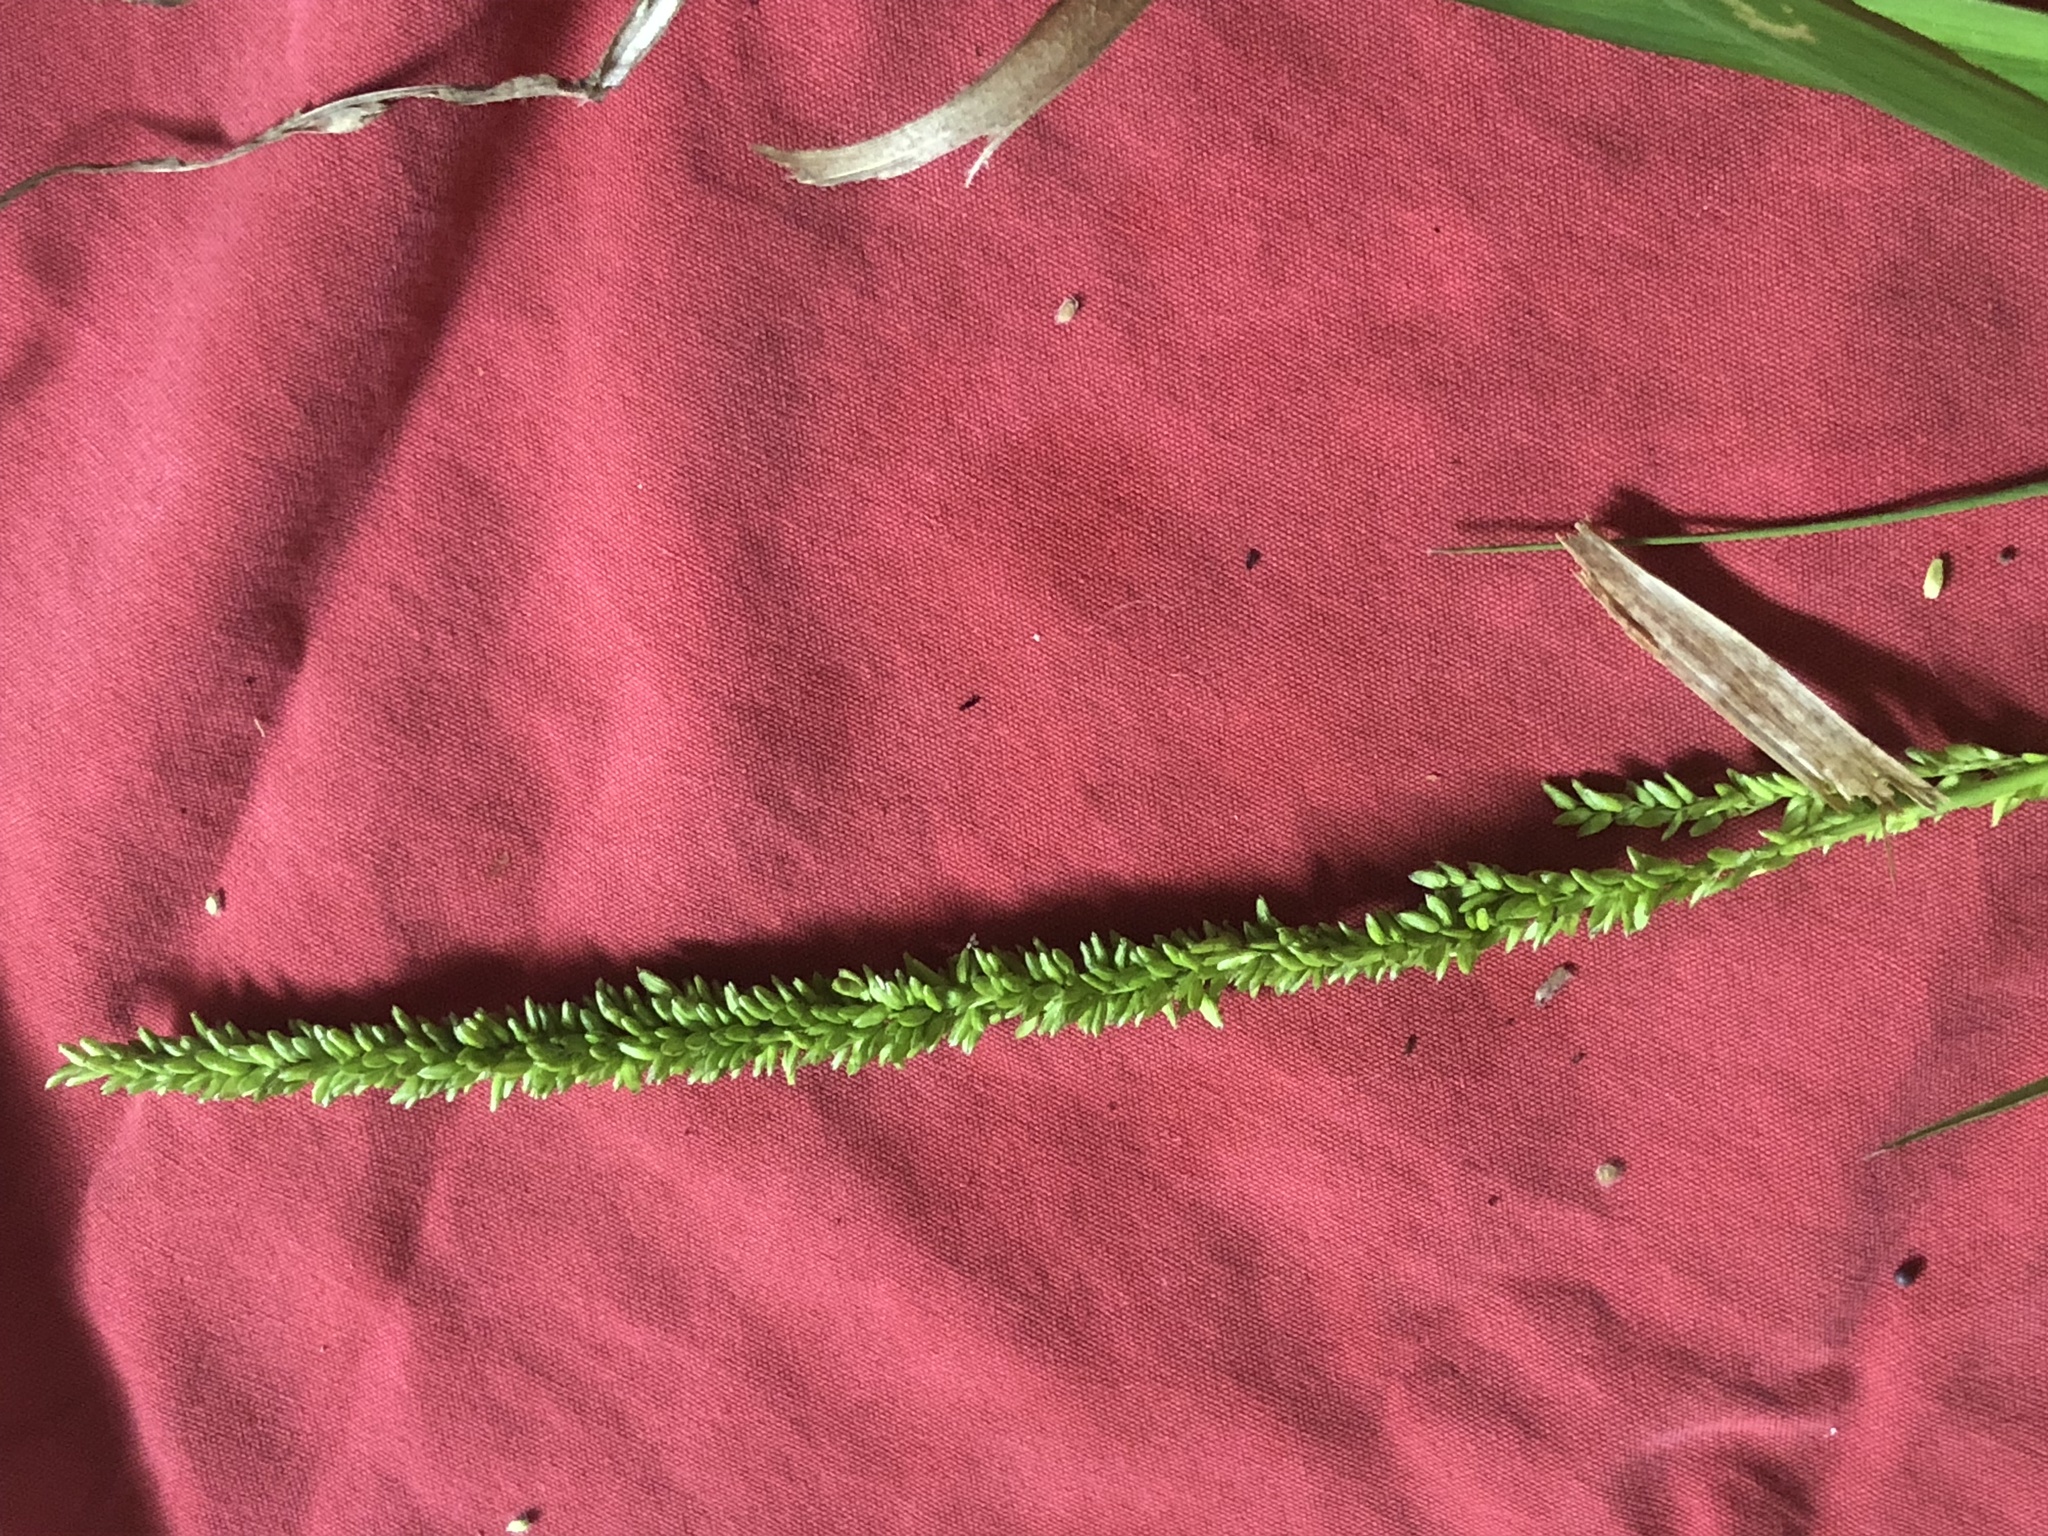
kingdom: Plantae
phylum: Tracheophyta
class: Liliopsida
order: Poales
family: Poaceae
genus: Sacciolepis
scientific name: Sacciolepis striata
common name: American cupscale
